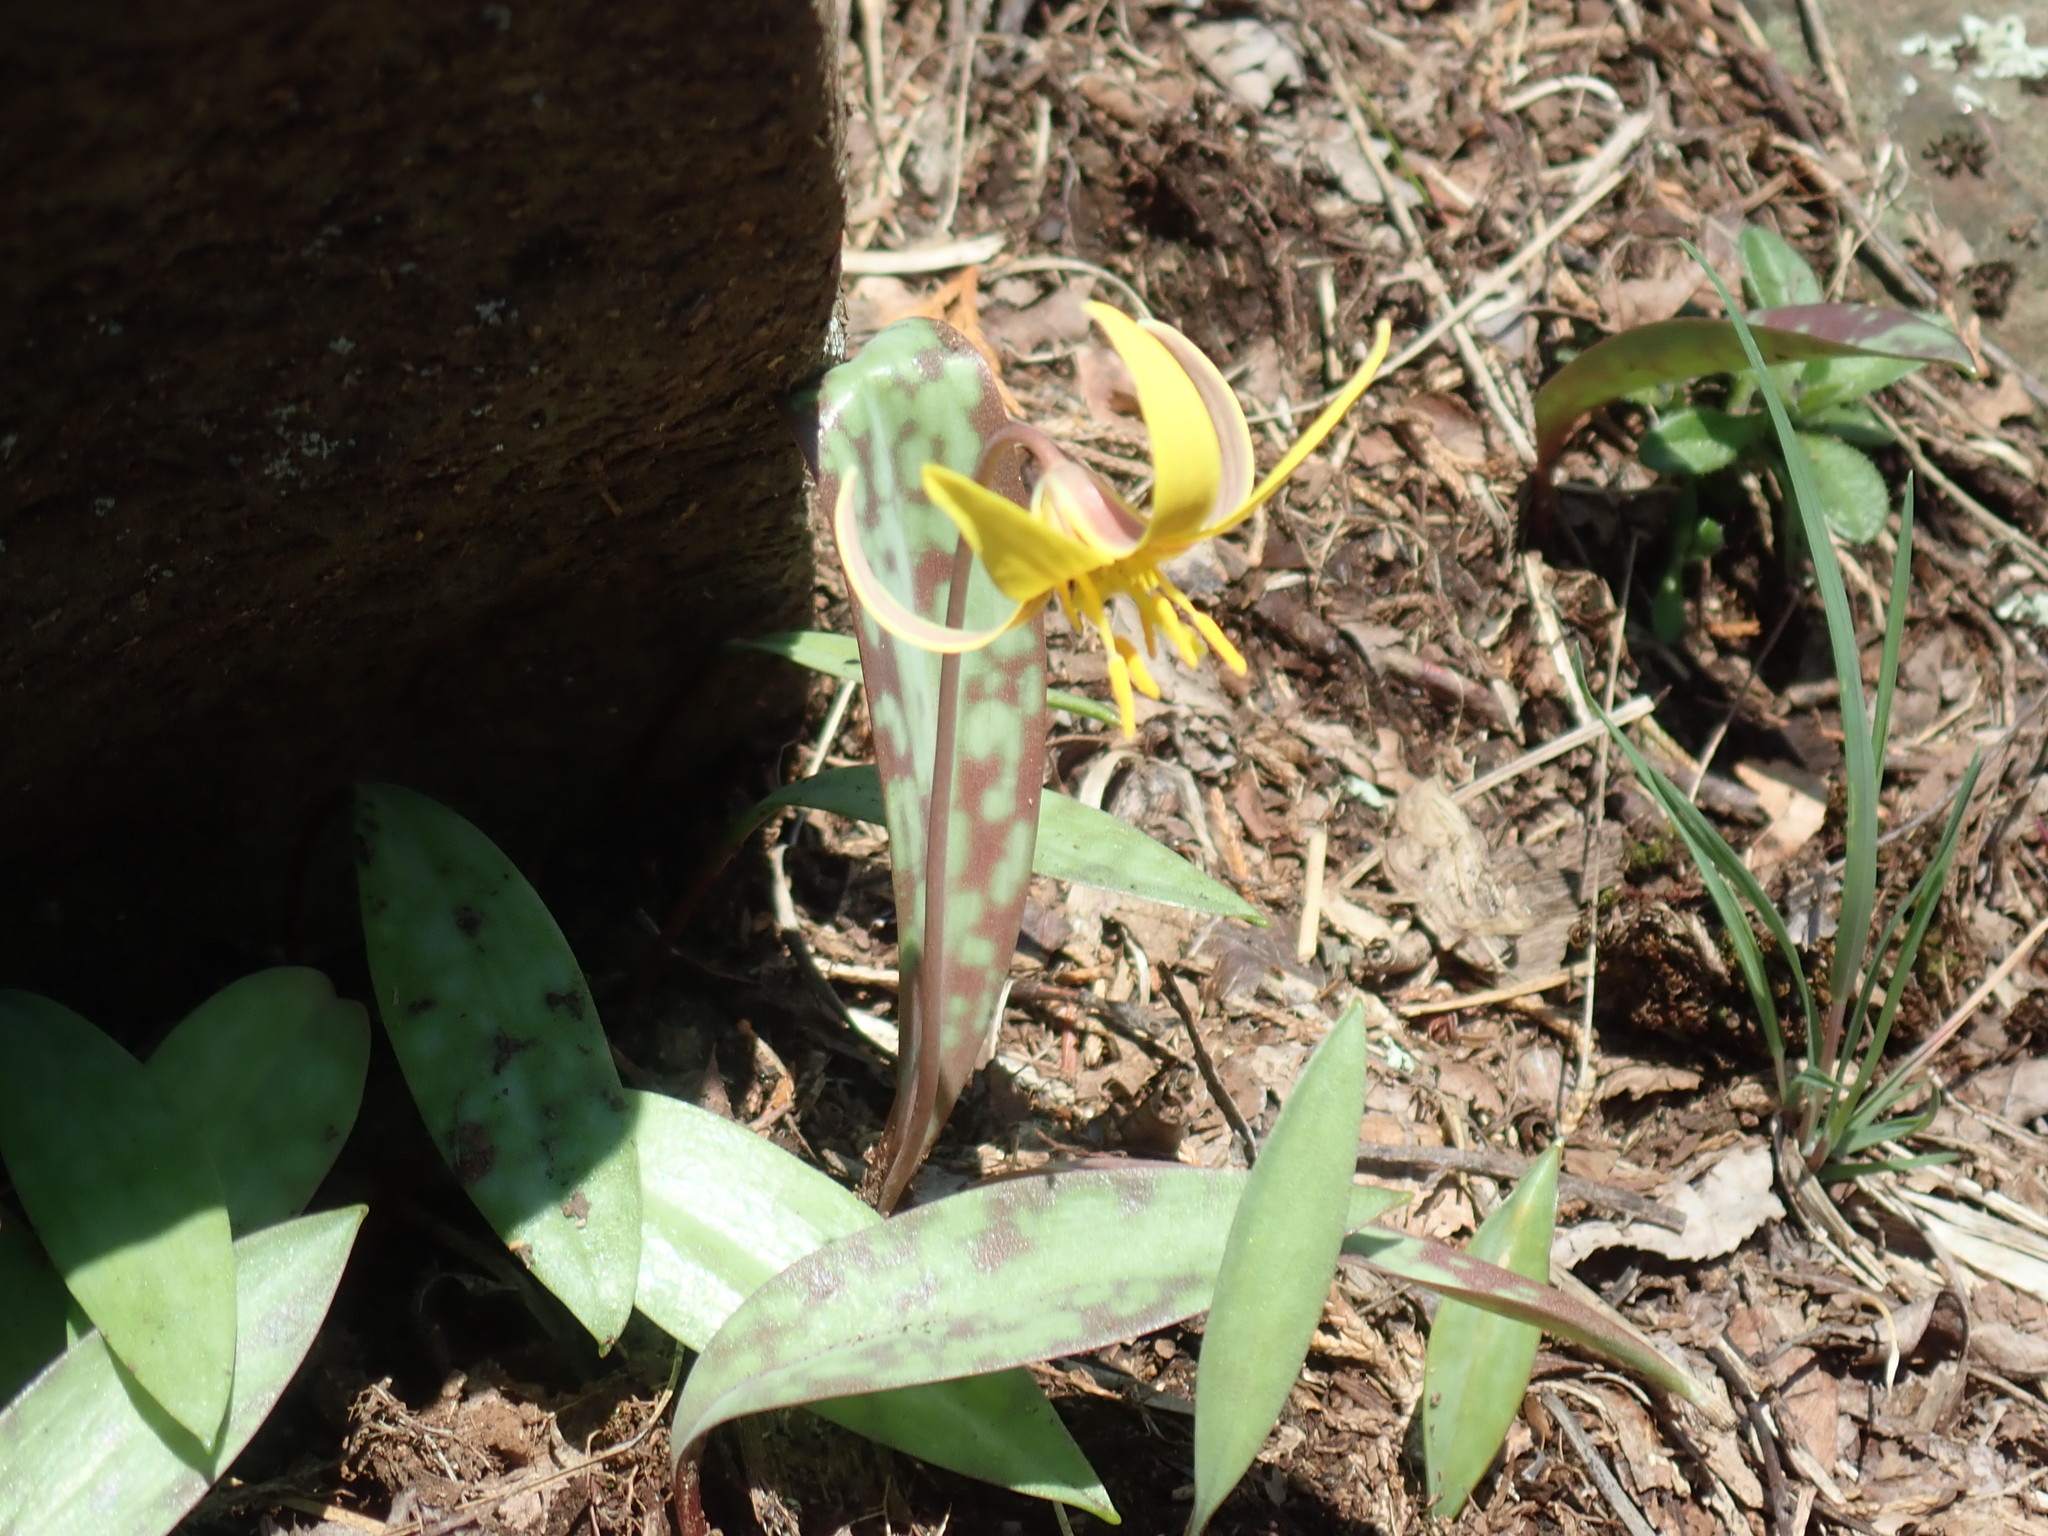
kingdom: Plantae
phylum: Tracheophyta
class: Liliopsida
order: Liliales
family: Liliaceae
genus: Erythronium
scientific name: Erythronium americanum
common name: Yellow adder's-tongue
